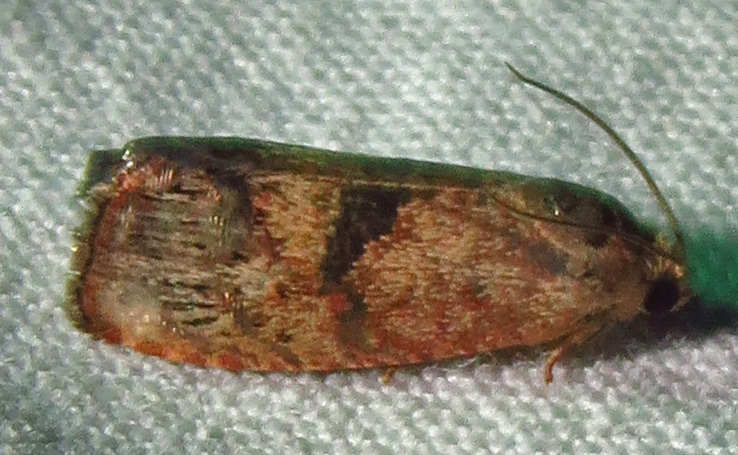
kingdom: Animalia
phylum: Arthropoda
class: Insecta
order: Lepidoptera
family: Tortricidae
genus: Cydia
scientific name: Cydia latiferreana
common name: Filbertworm moth
